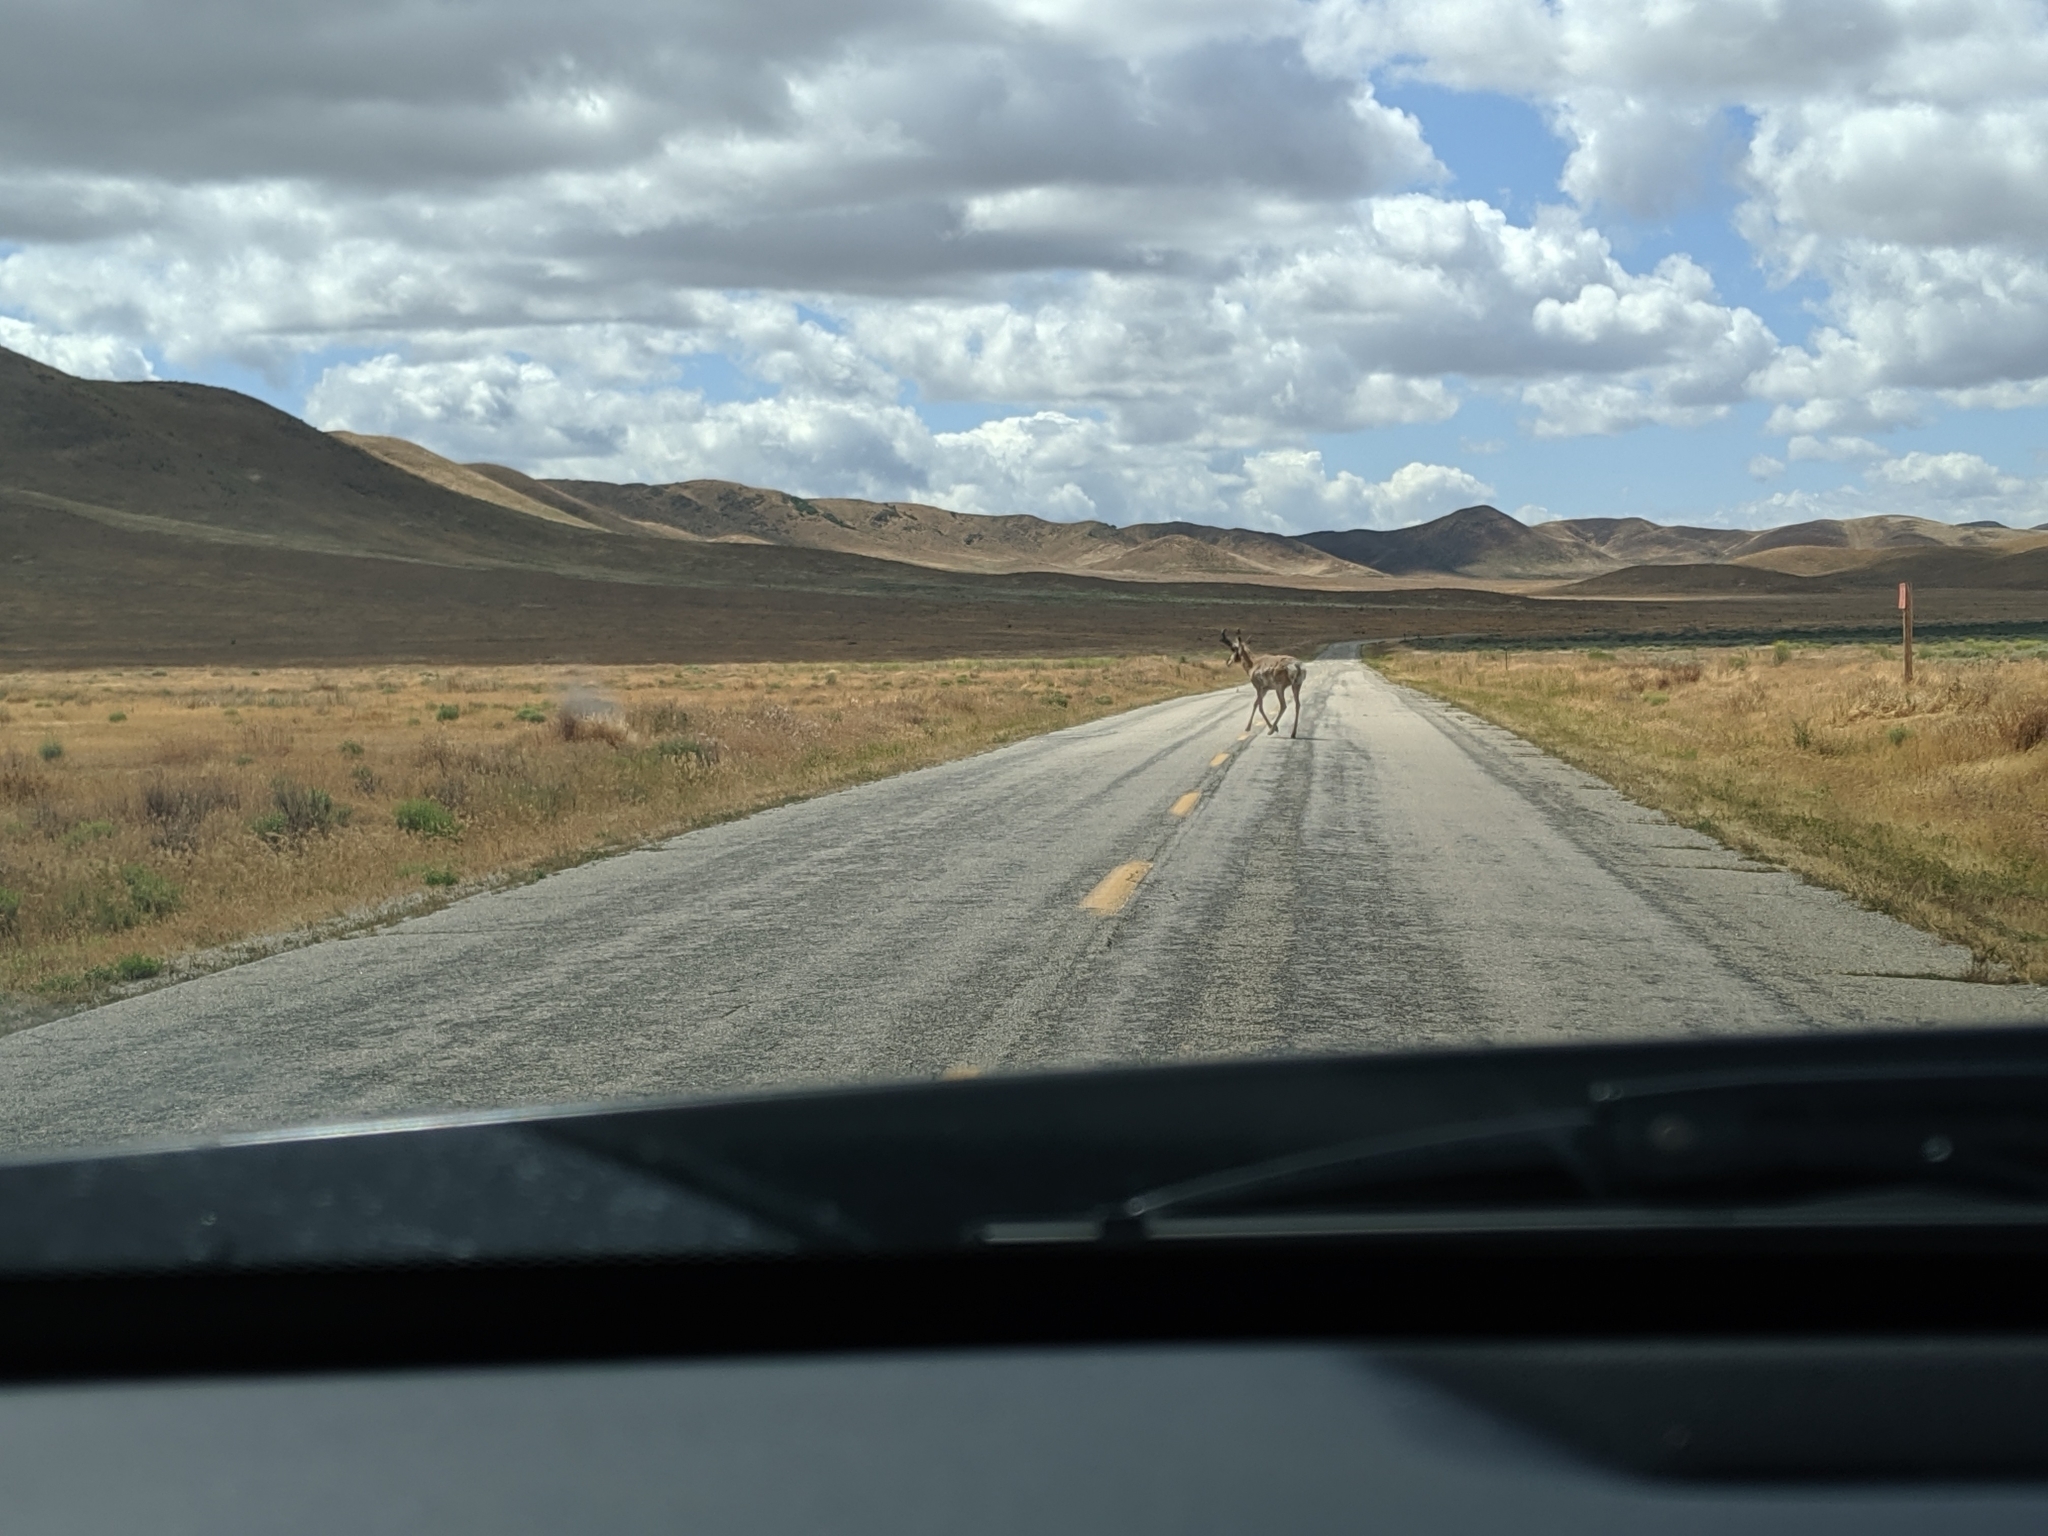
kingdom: Animalia
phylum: Chordata
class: Mammalia
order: Artiodactyla
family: Antilocapridae
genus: Antilocapra
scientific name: Antilocapra americana
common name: Pronghorn
